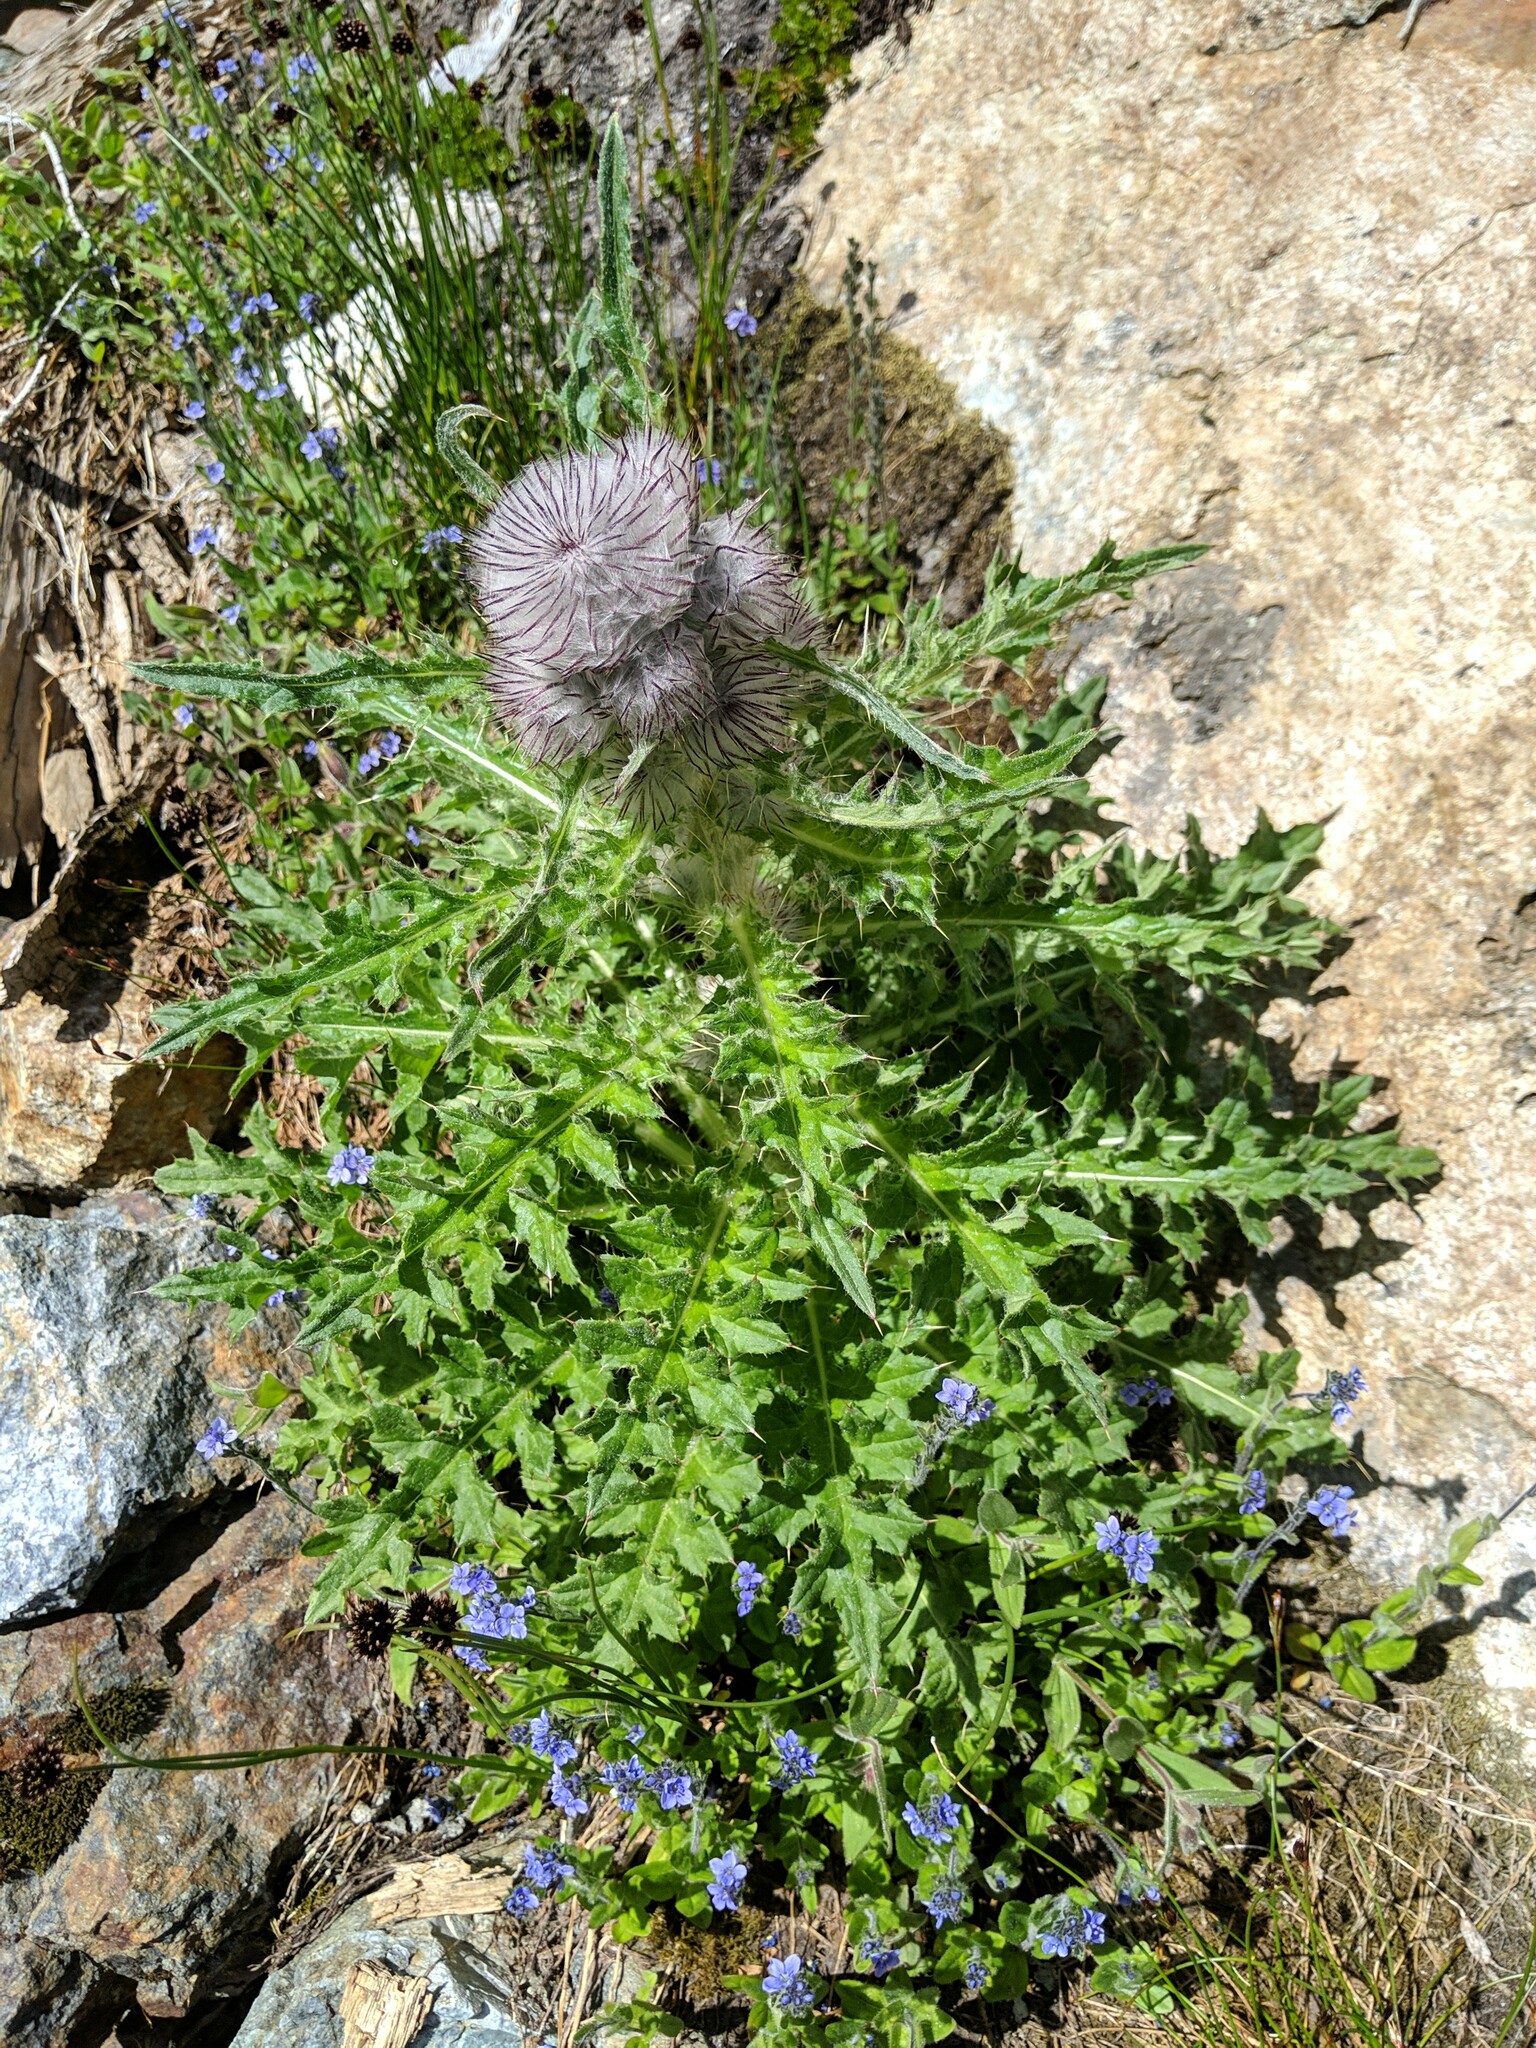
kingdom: Plantae
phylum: Tracheophyta
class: Magnoliopsida
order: Asterales
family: Asteraceae
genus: Cirsium
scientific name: Cirsium edule
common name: Indian thistle
